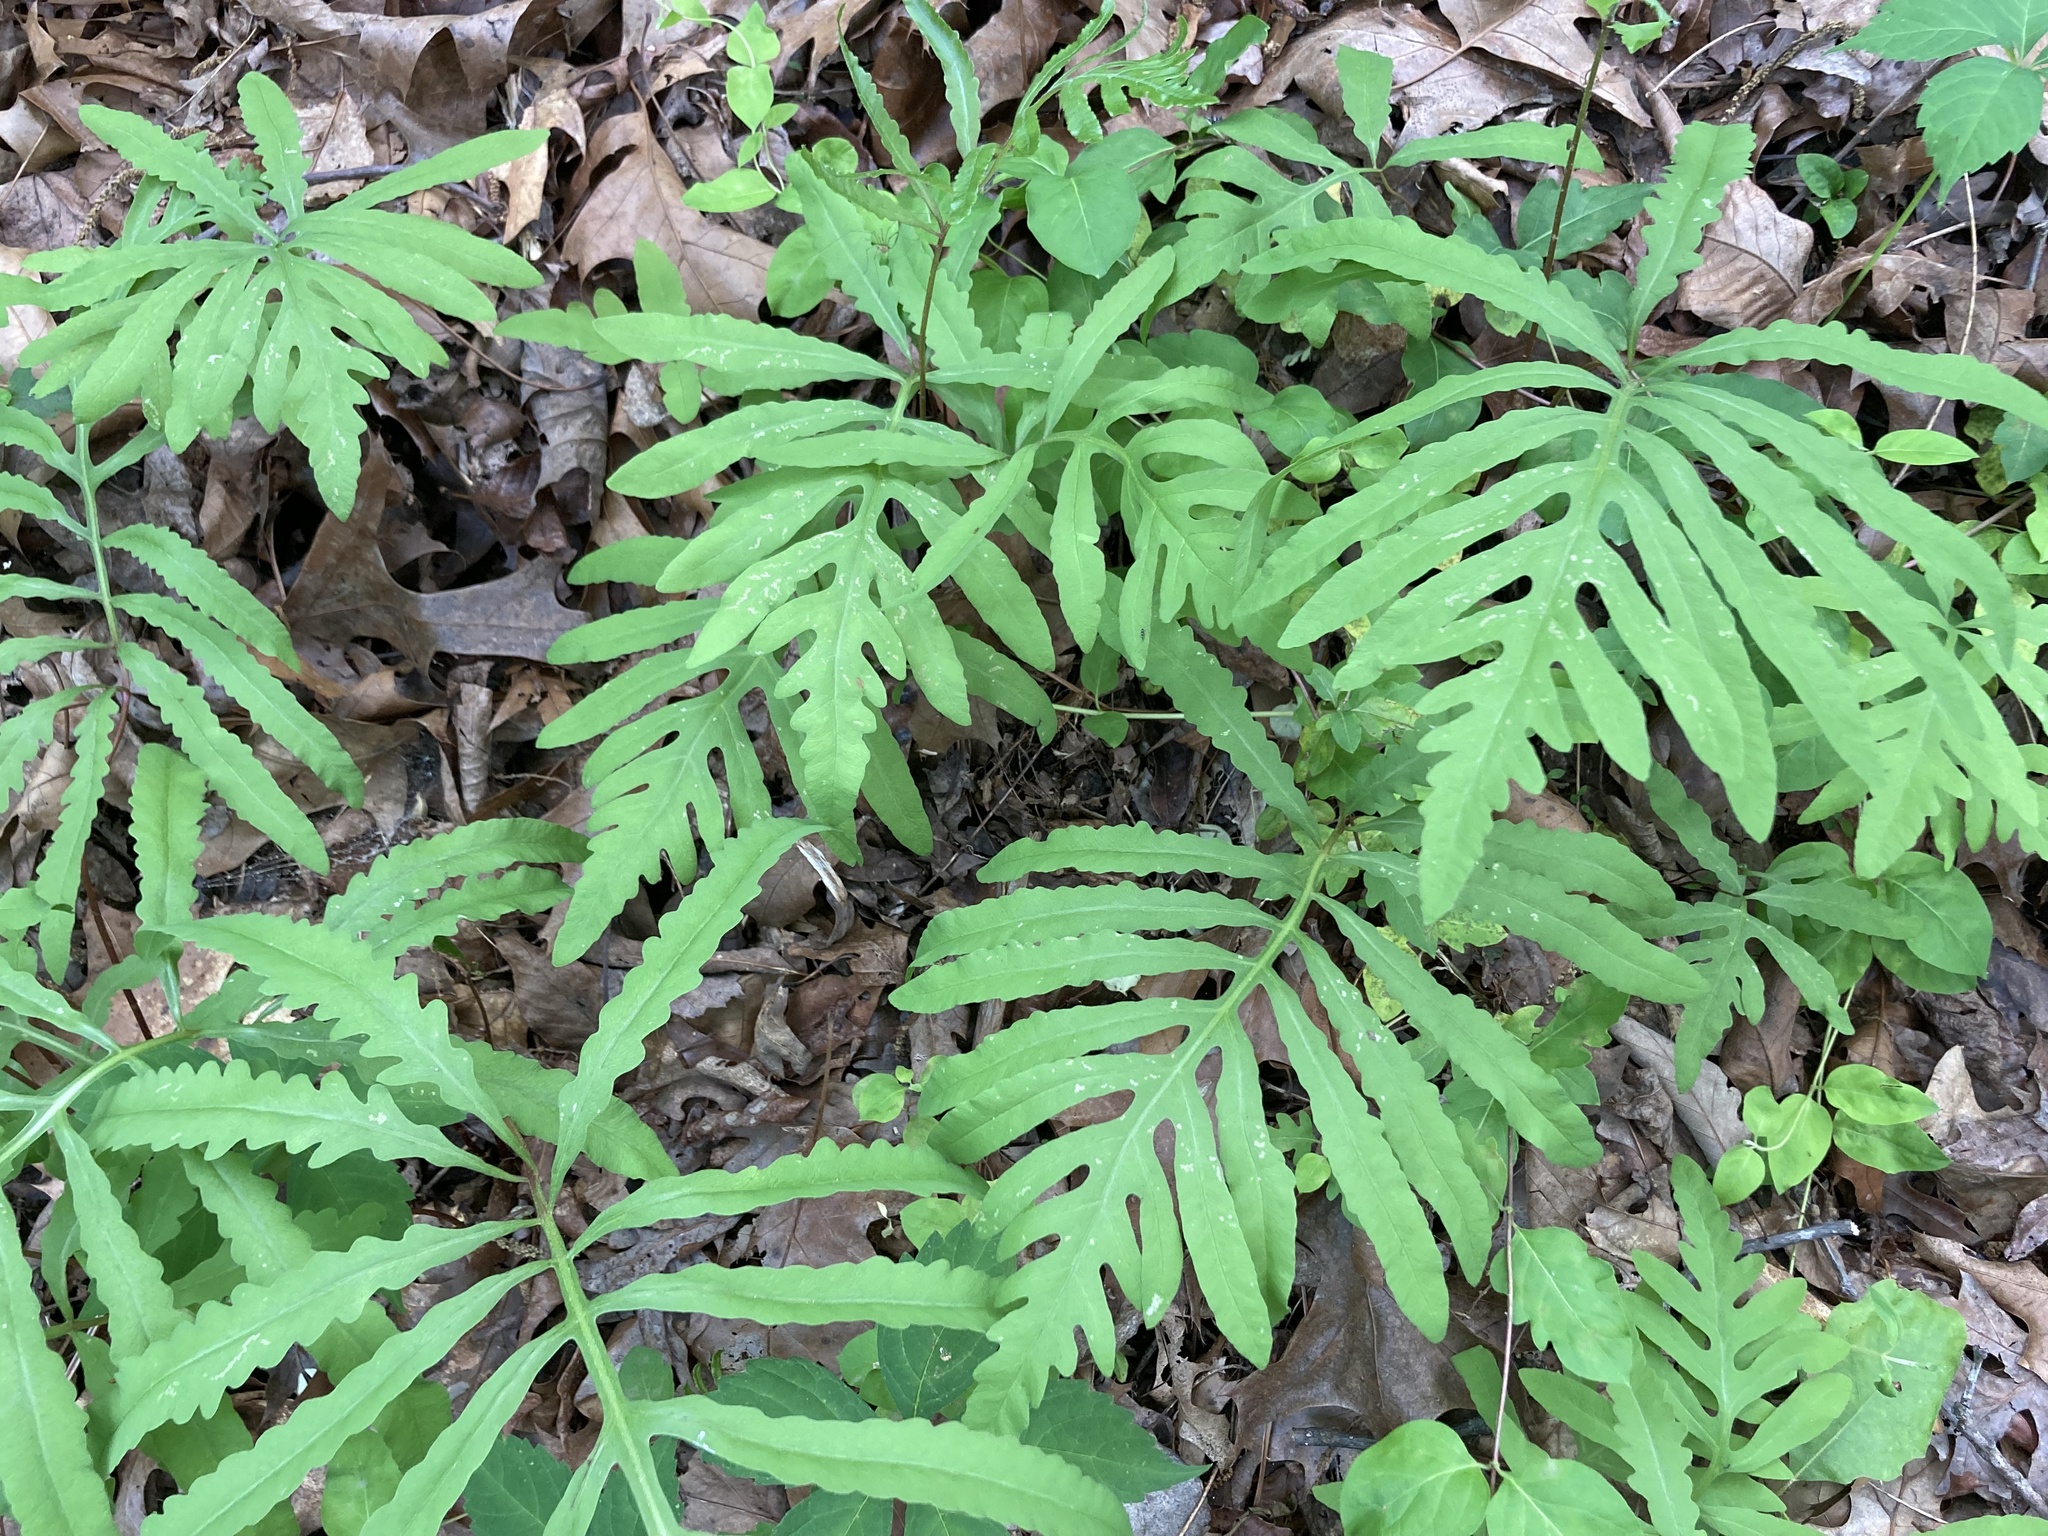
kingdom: Plantae
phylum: Tracheophyta
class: Polypodiopsida
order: Polypodiales
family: Onocleaceae
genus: Onoclea
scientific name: Onoclea sensibilis
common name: Sensitive fern
